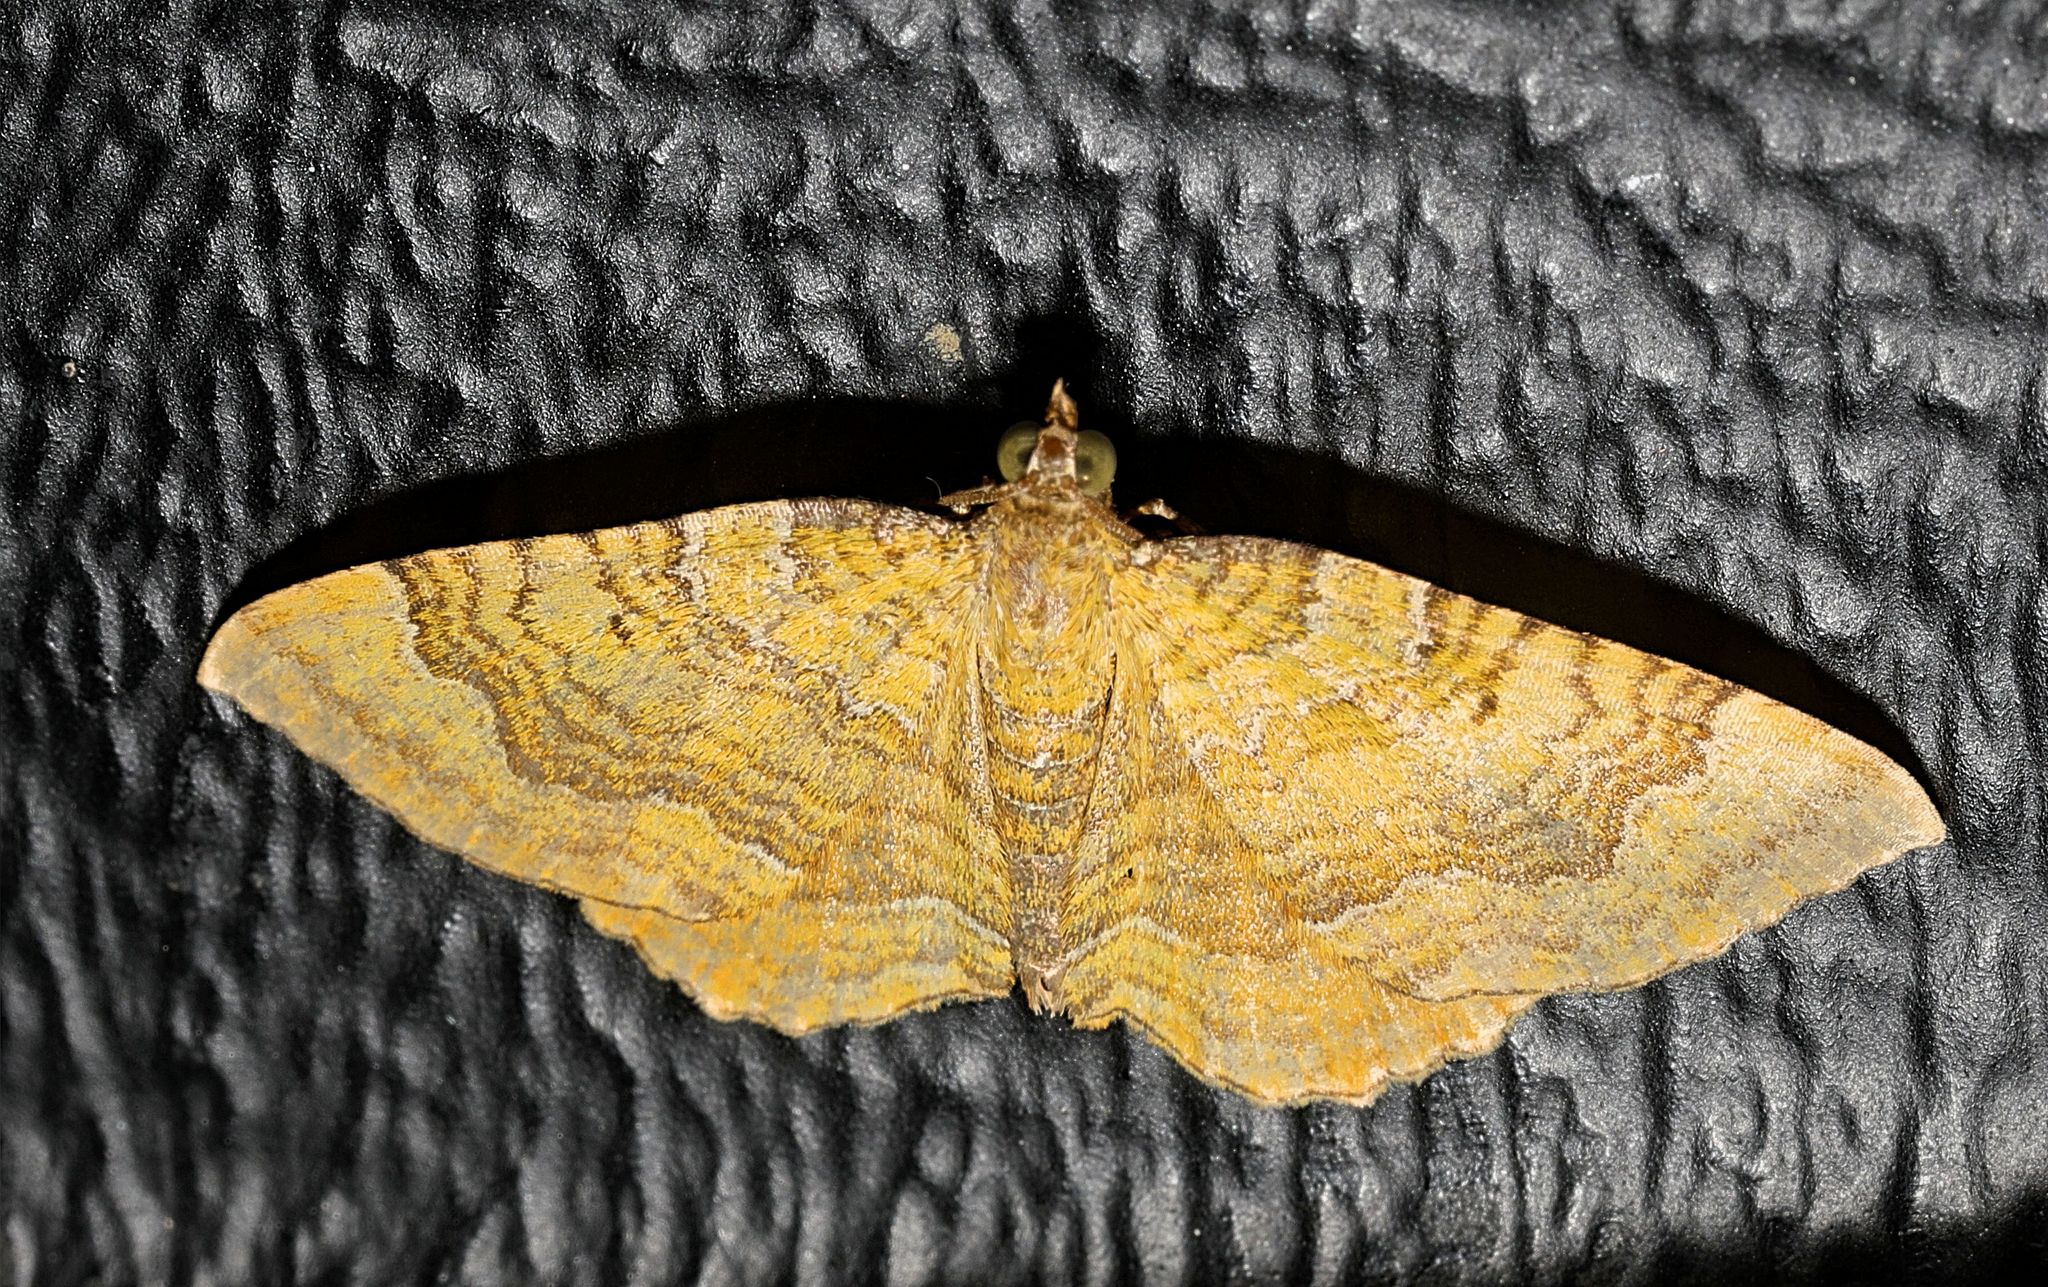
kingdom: Animalia
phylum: Arthropoda
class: Insecta
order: Lepidoptera
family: Geometridae
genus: Camptogramma
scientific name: Camptogramma bilineata
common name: Yellow shell
